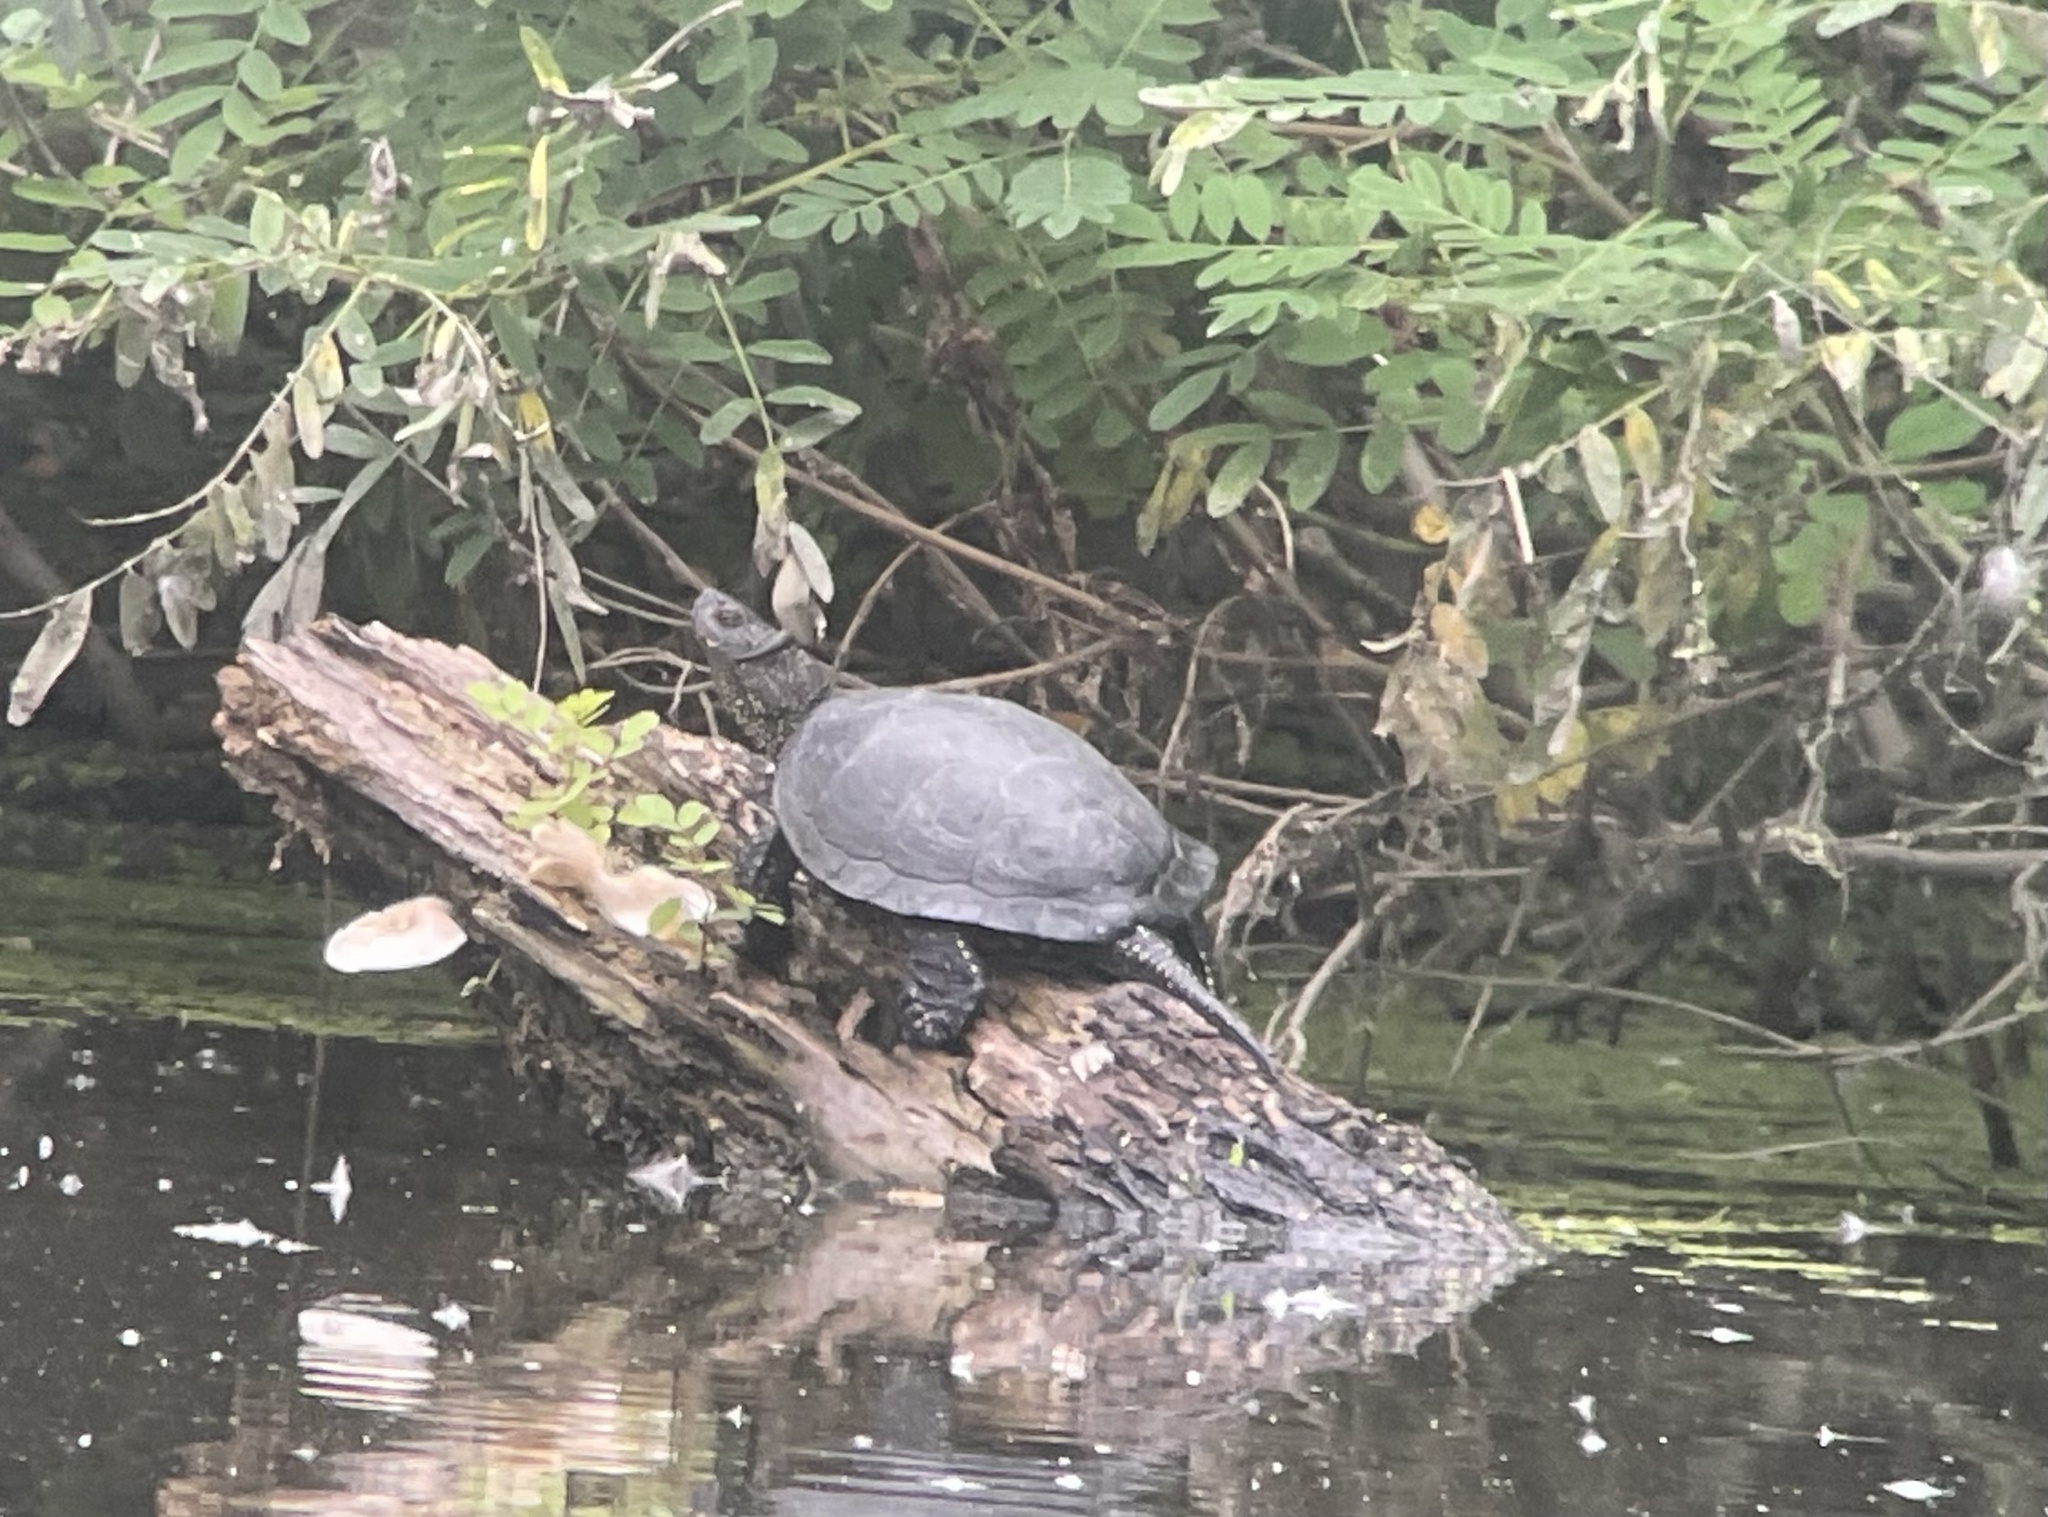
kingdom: Animalia
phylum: Chordata
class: Testudines
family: Emydidae
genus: Emys
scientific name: Emys orbicularis
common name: European pond turtle
